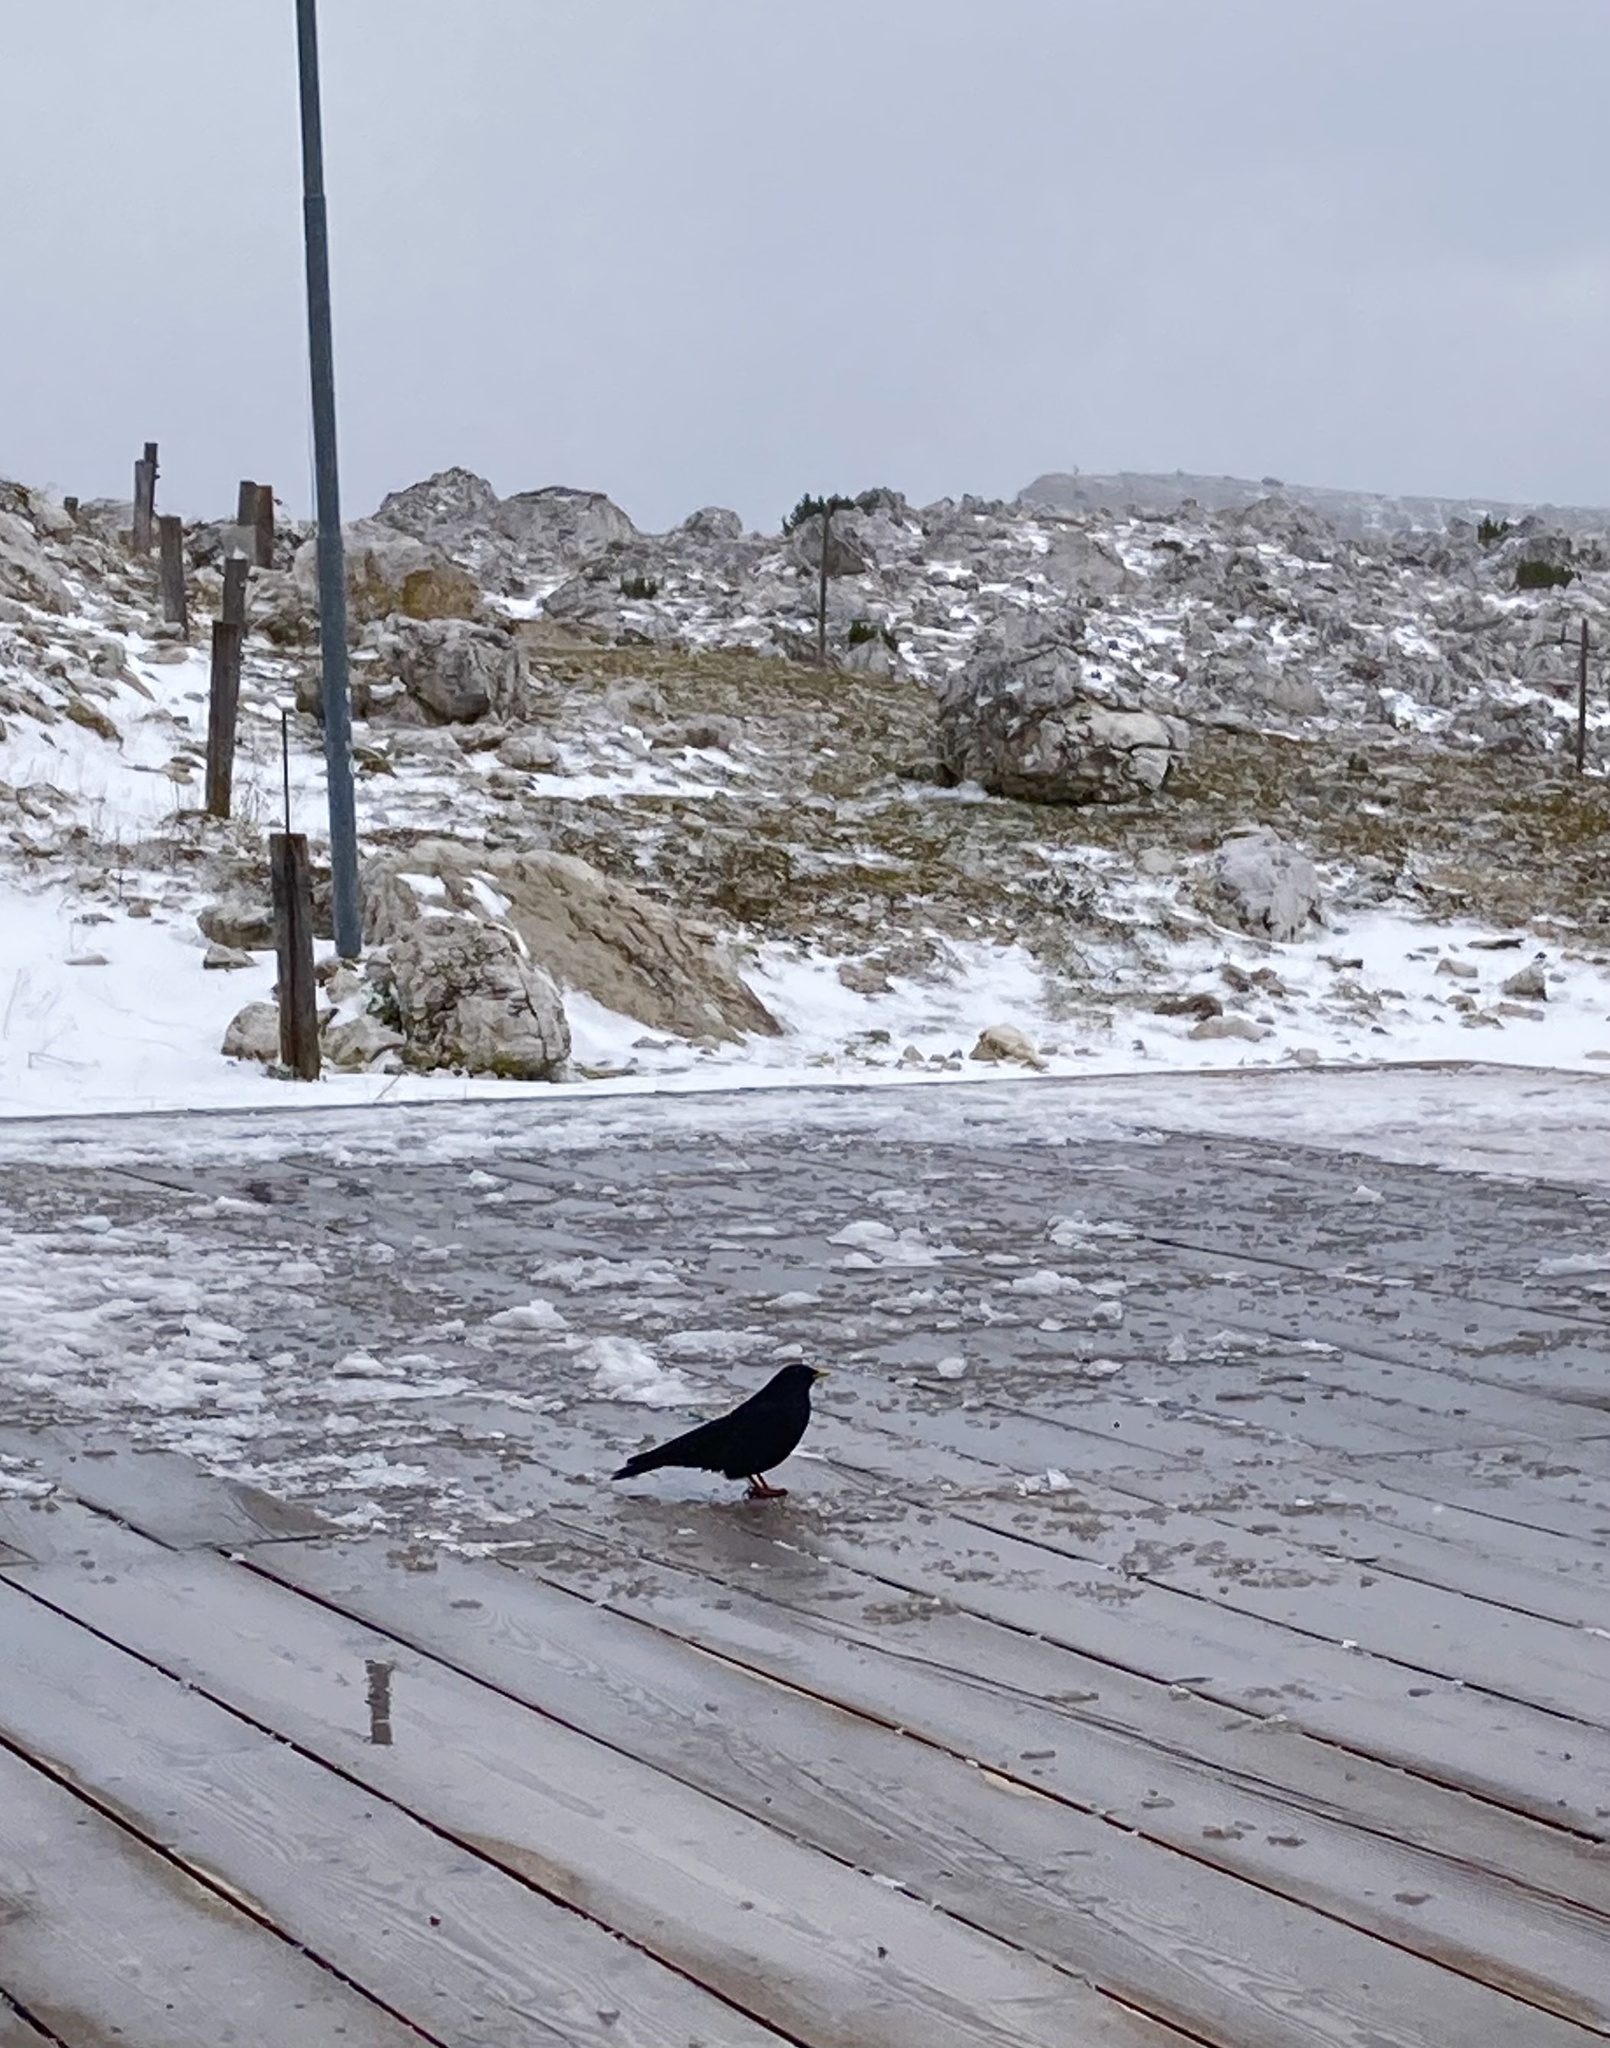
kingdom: Animalia
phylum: Chordata
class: Aves
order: Passeriformes
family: Corvidae
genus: Pyrrhocorax
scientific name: Pyrrhocorax graculus
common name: Alpine chough
